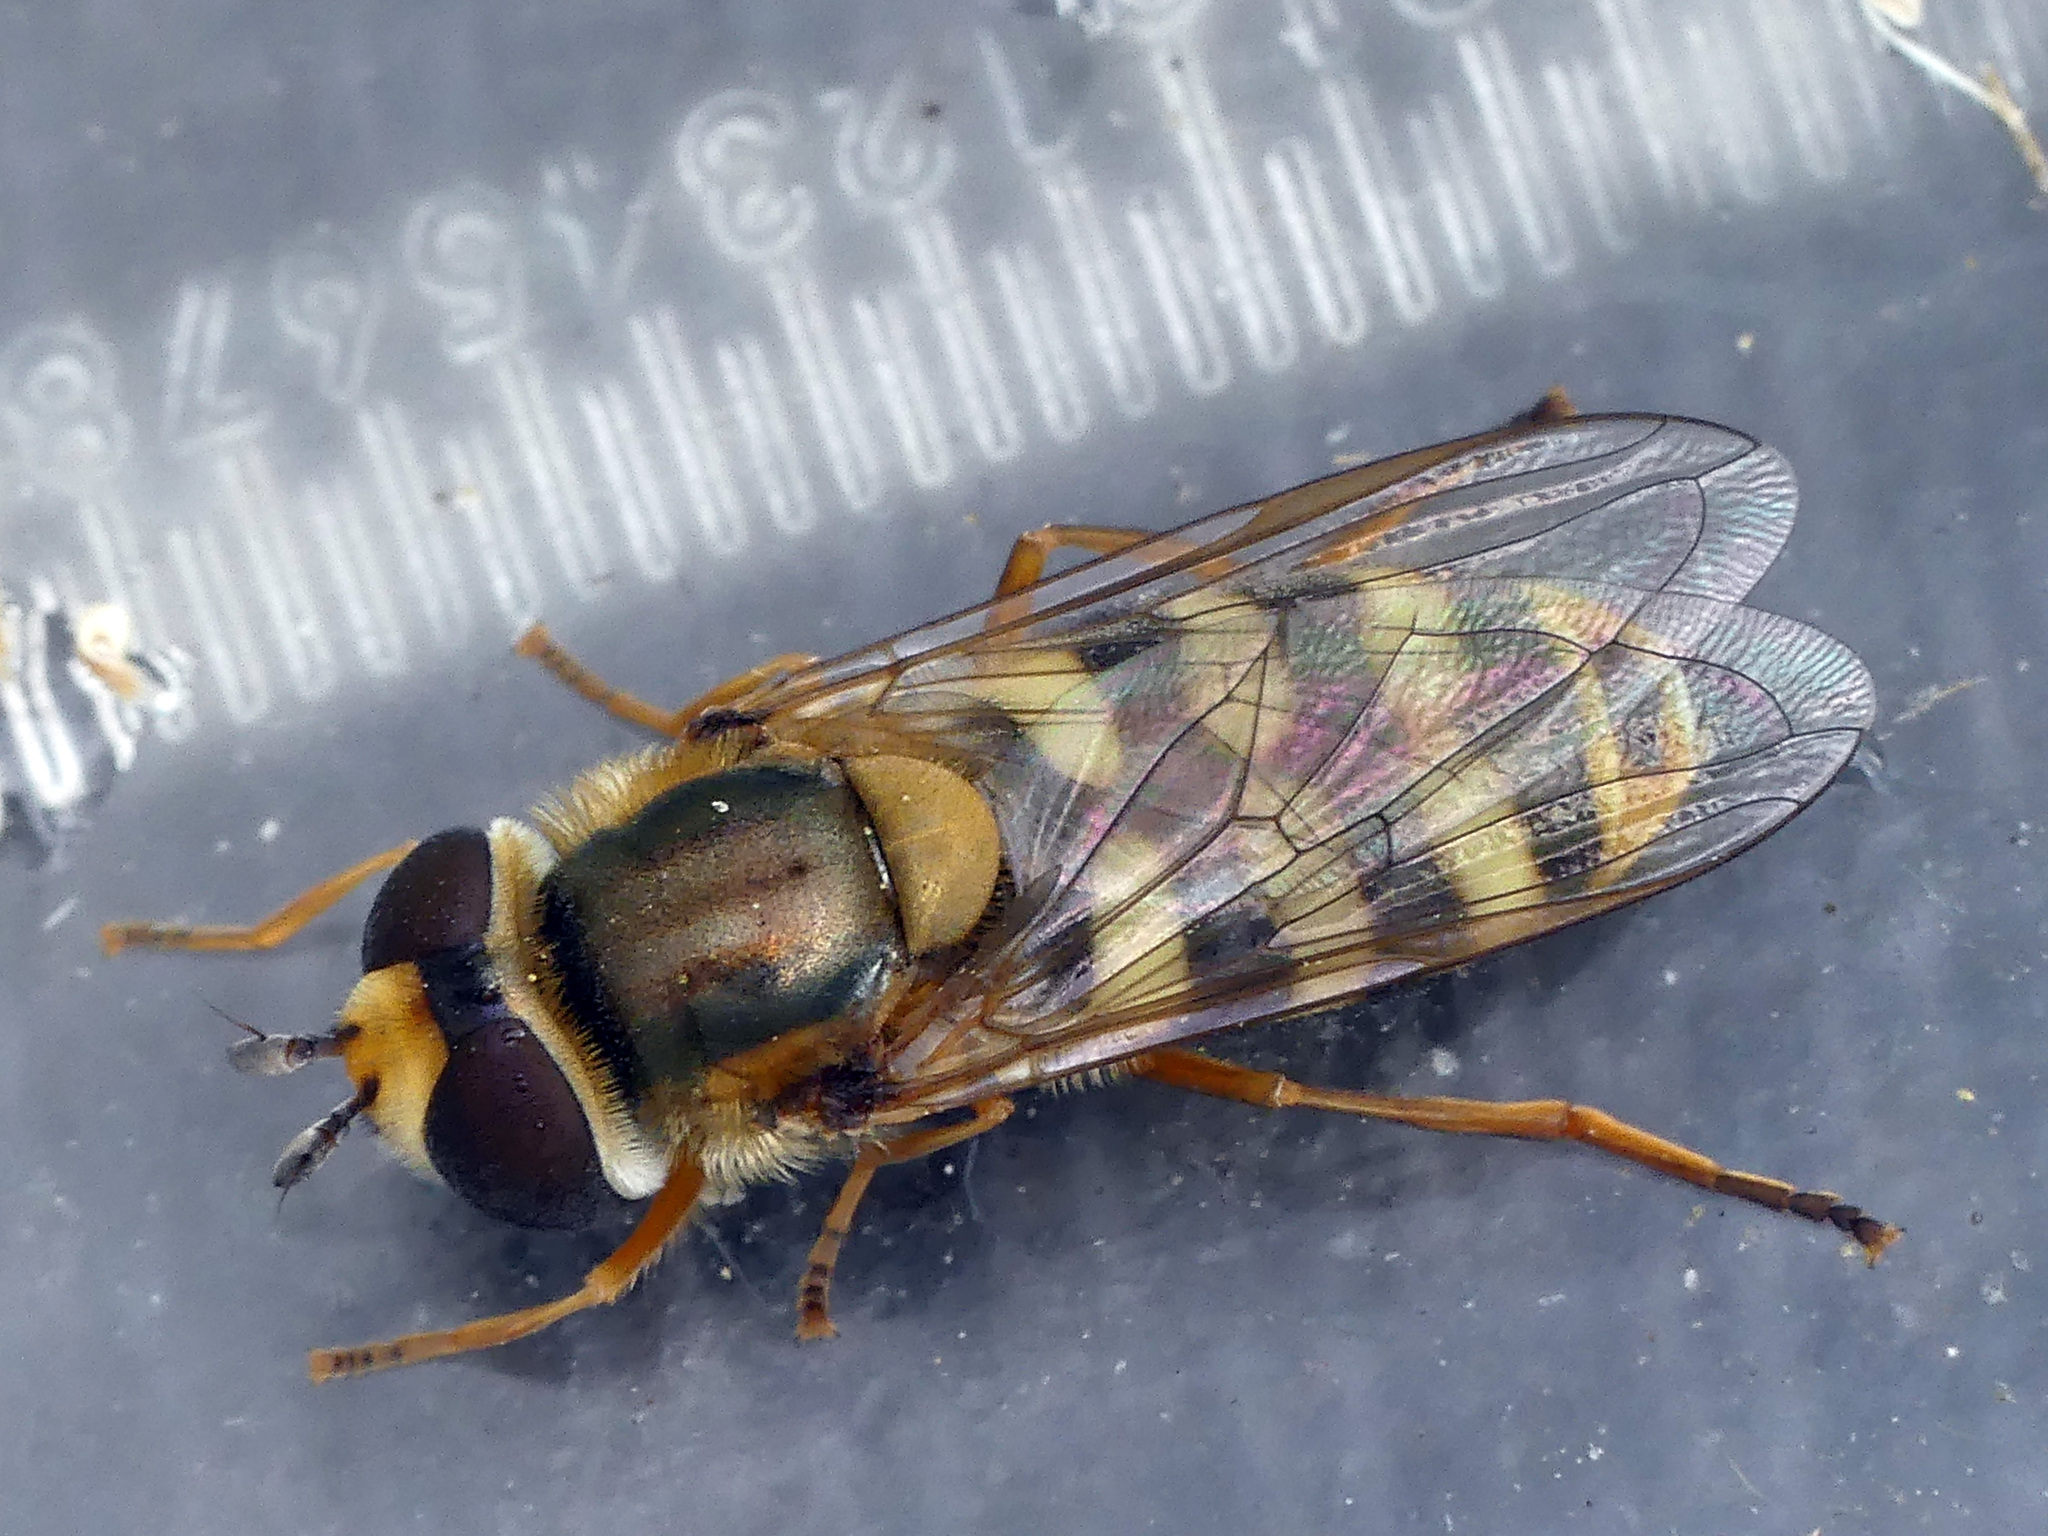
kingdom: Animalia
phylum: Arthropoda
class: Insecta
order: Diptera
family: Syrphidae
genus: Eupeodes
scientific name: Eupeodes corollae
